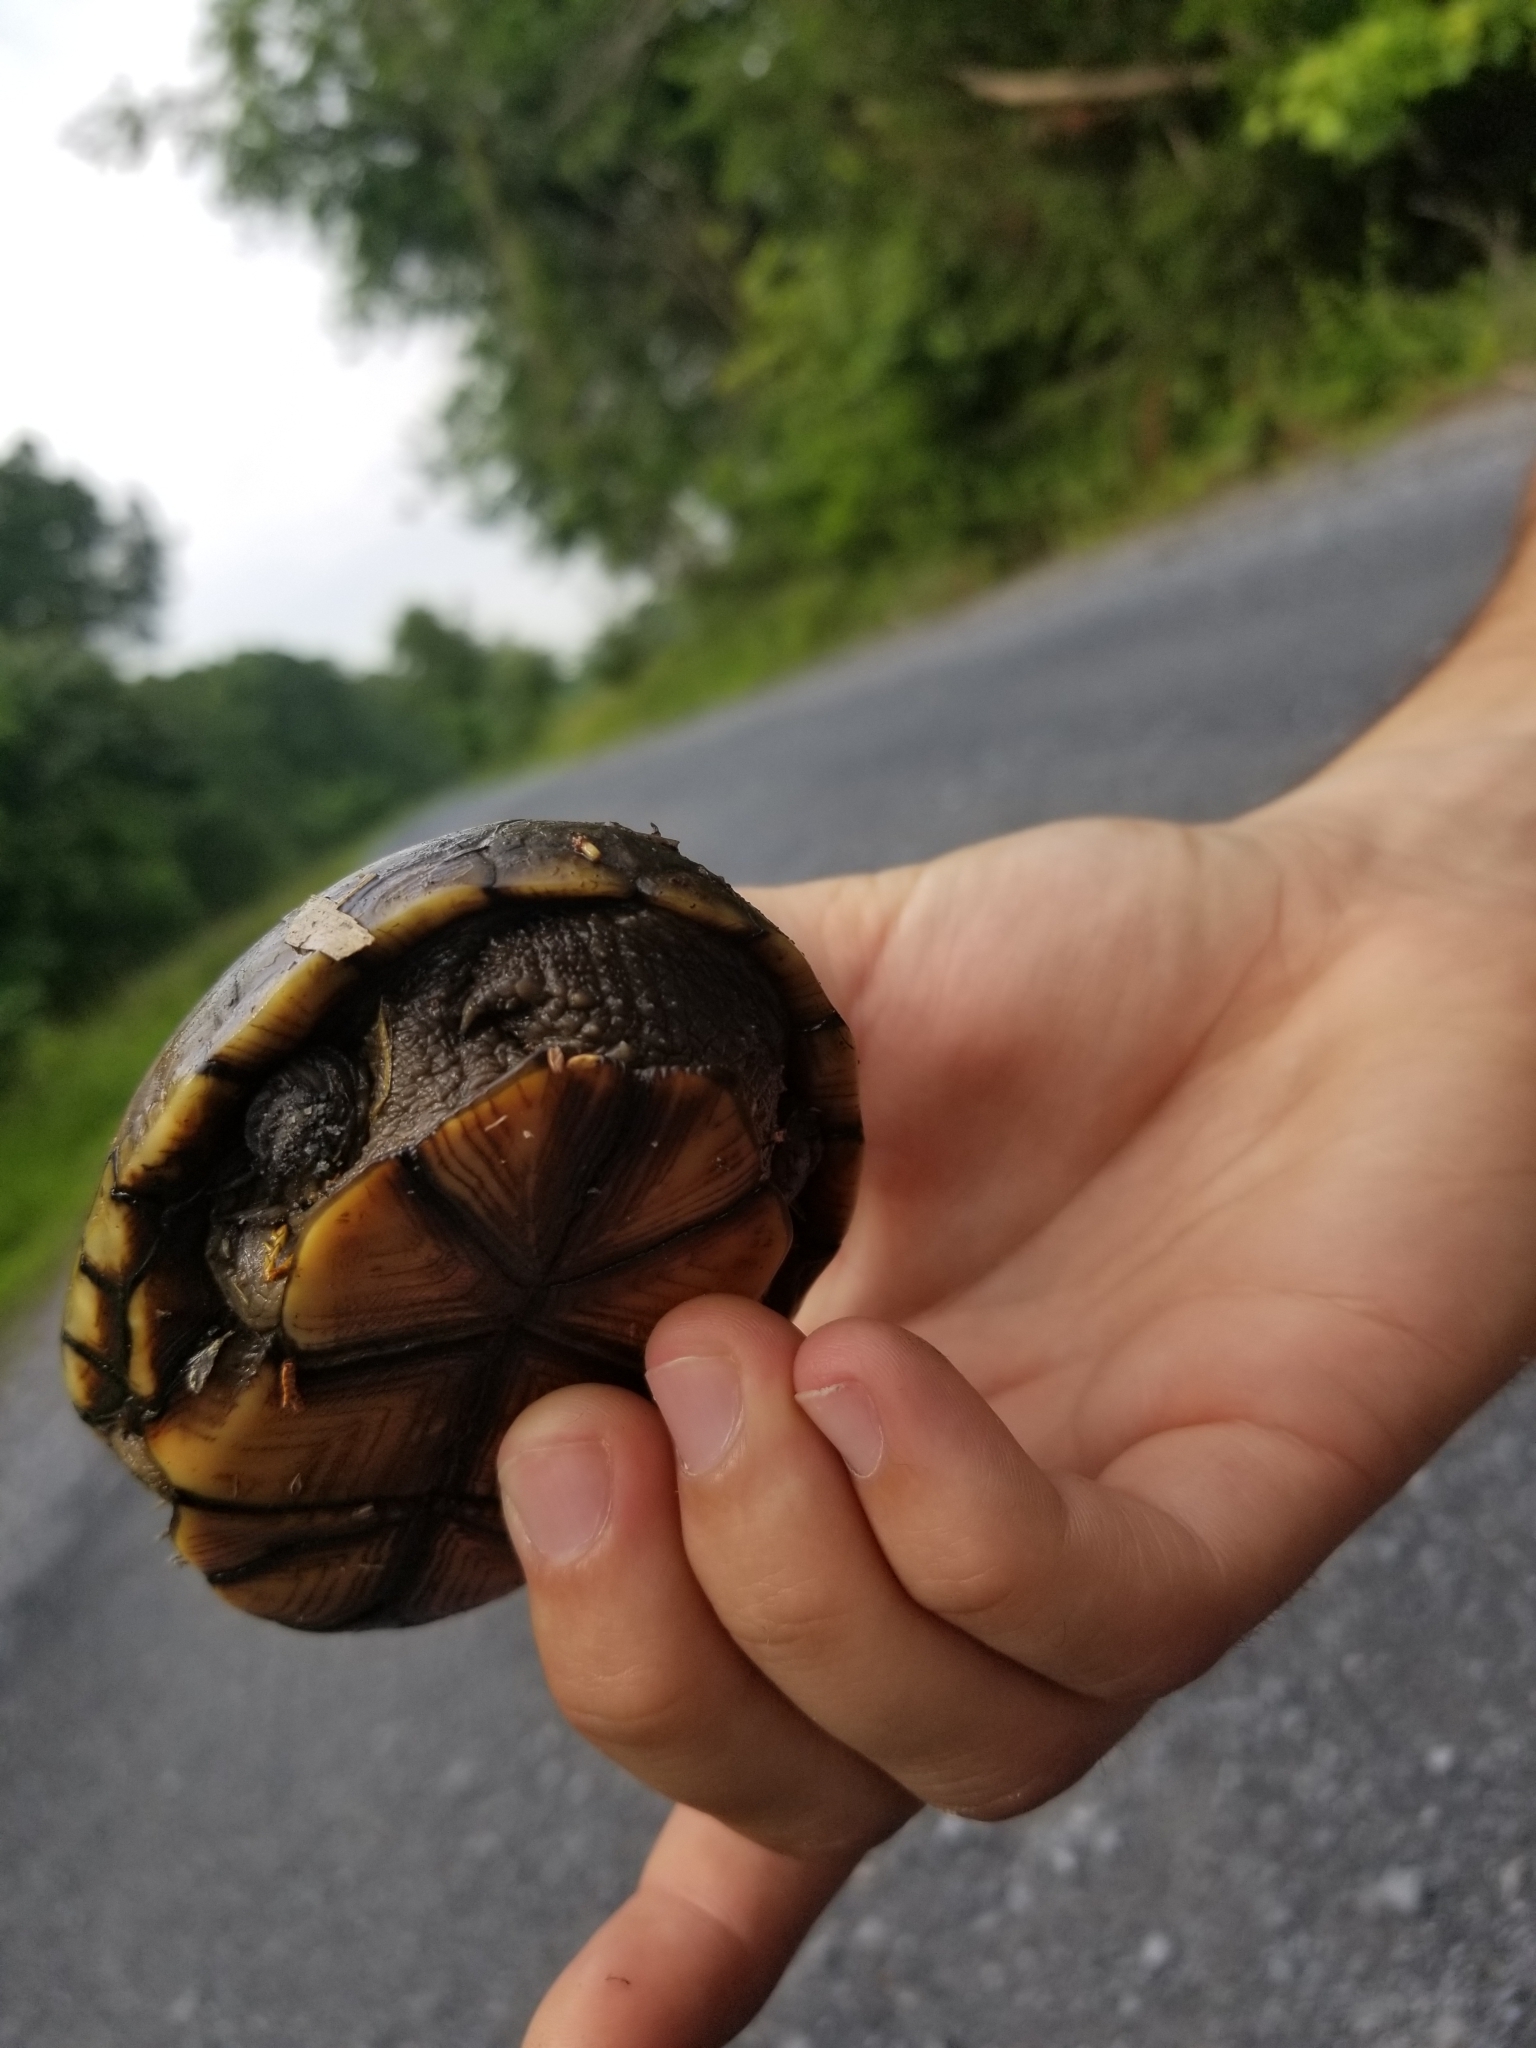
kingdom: Animalia
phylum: Chordata
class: Testudines
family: Kinosternidae
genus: Kinosternon
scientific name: Kinosternon subrubrum
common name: Eastern mud turtle
